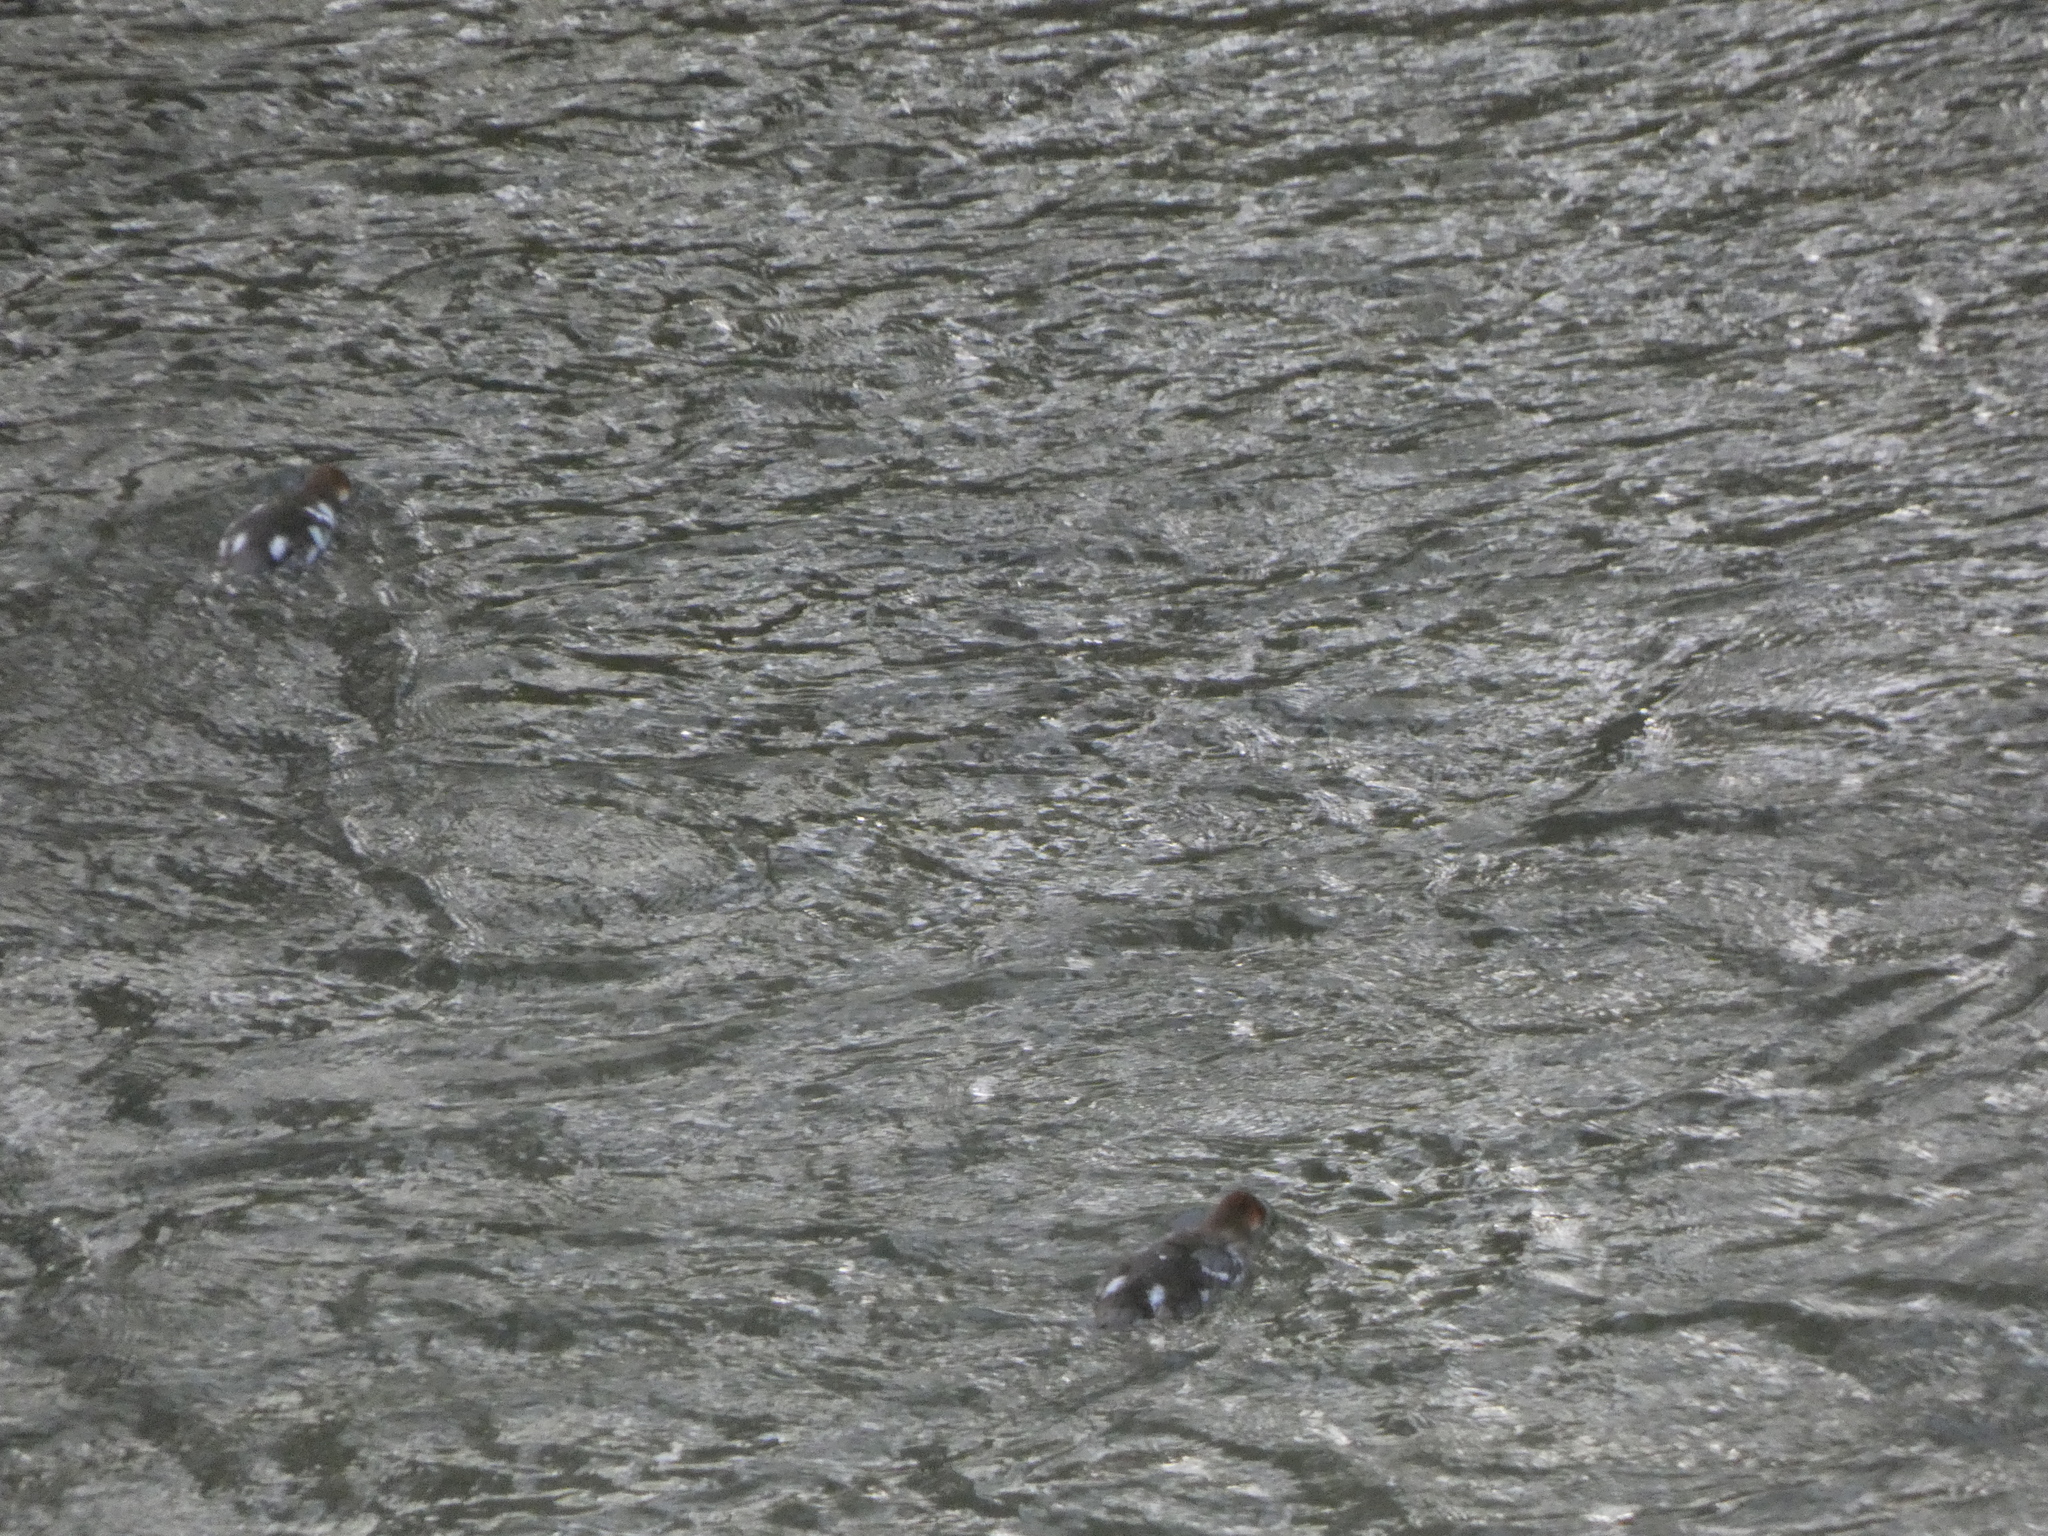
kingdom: Animalia
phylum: Chordata
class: Aves
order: Anseriformes
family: Anatidae
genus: Mergus
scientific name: Mergus merganser
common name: Common merganser
